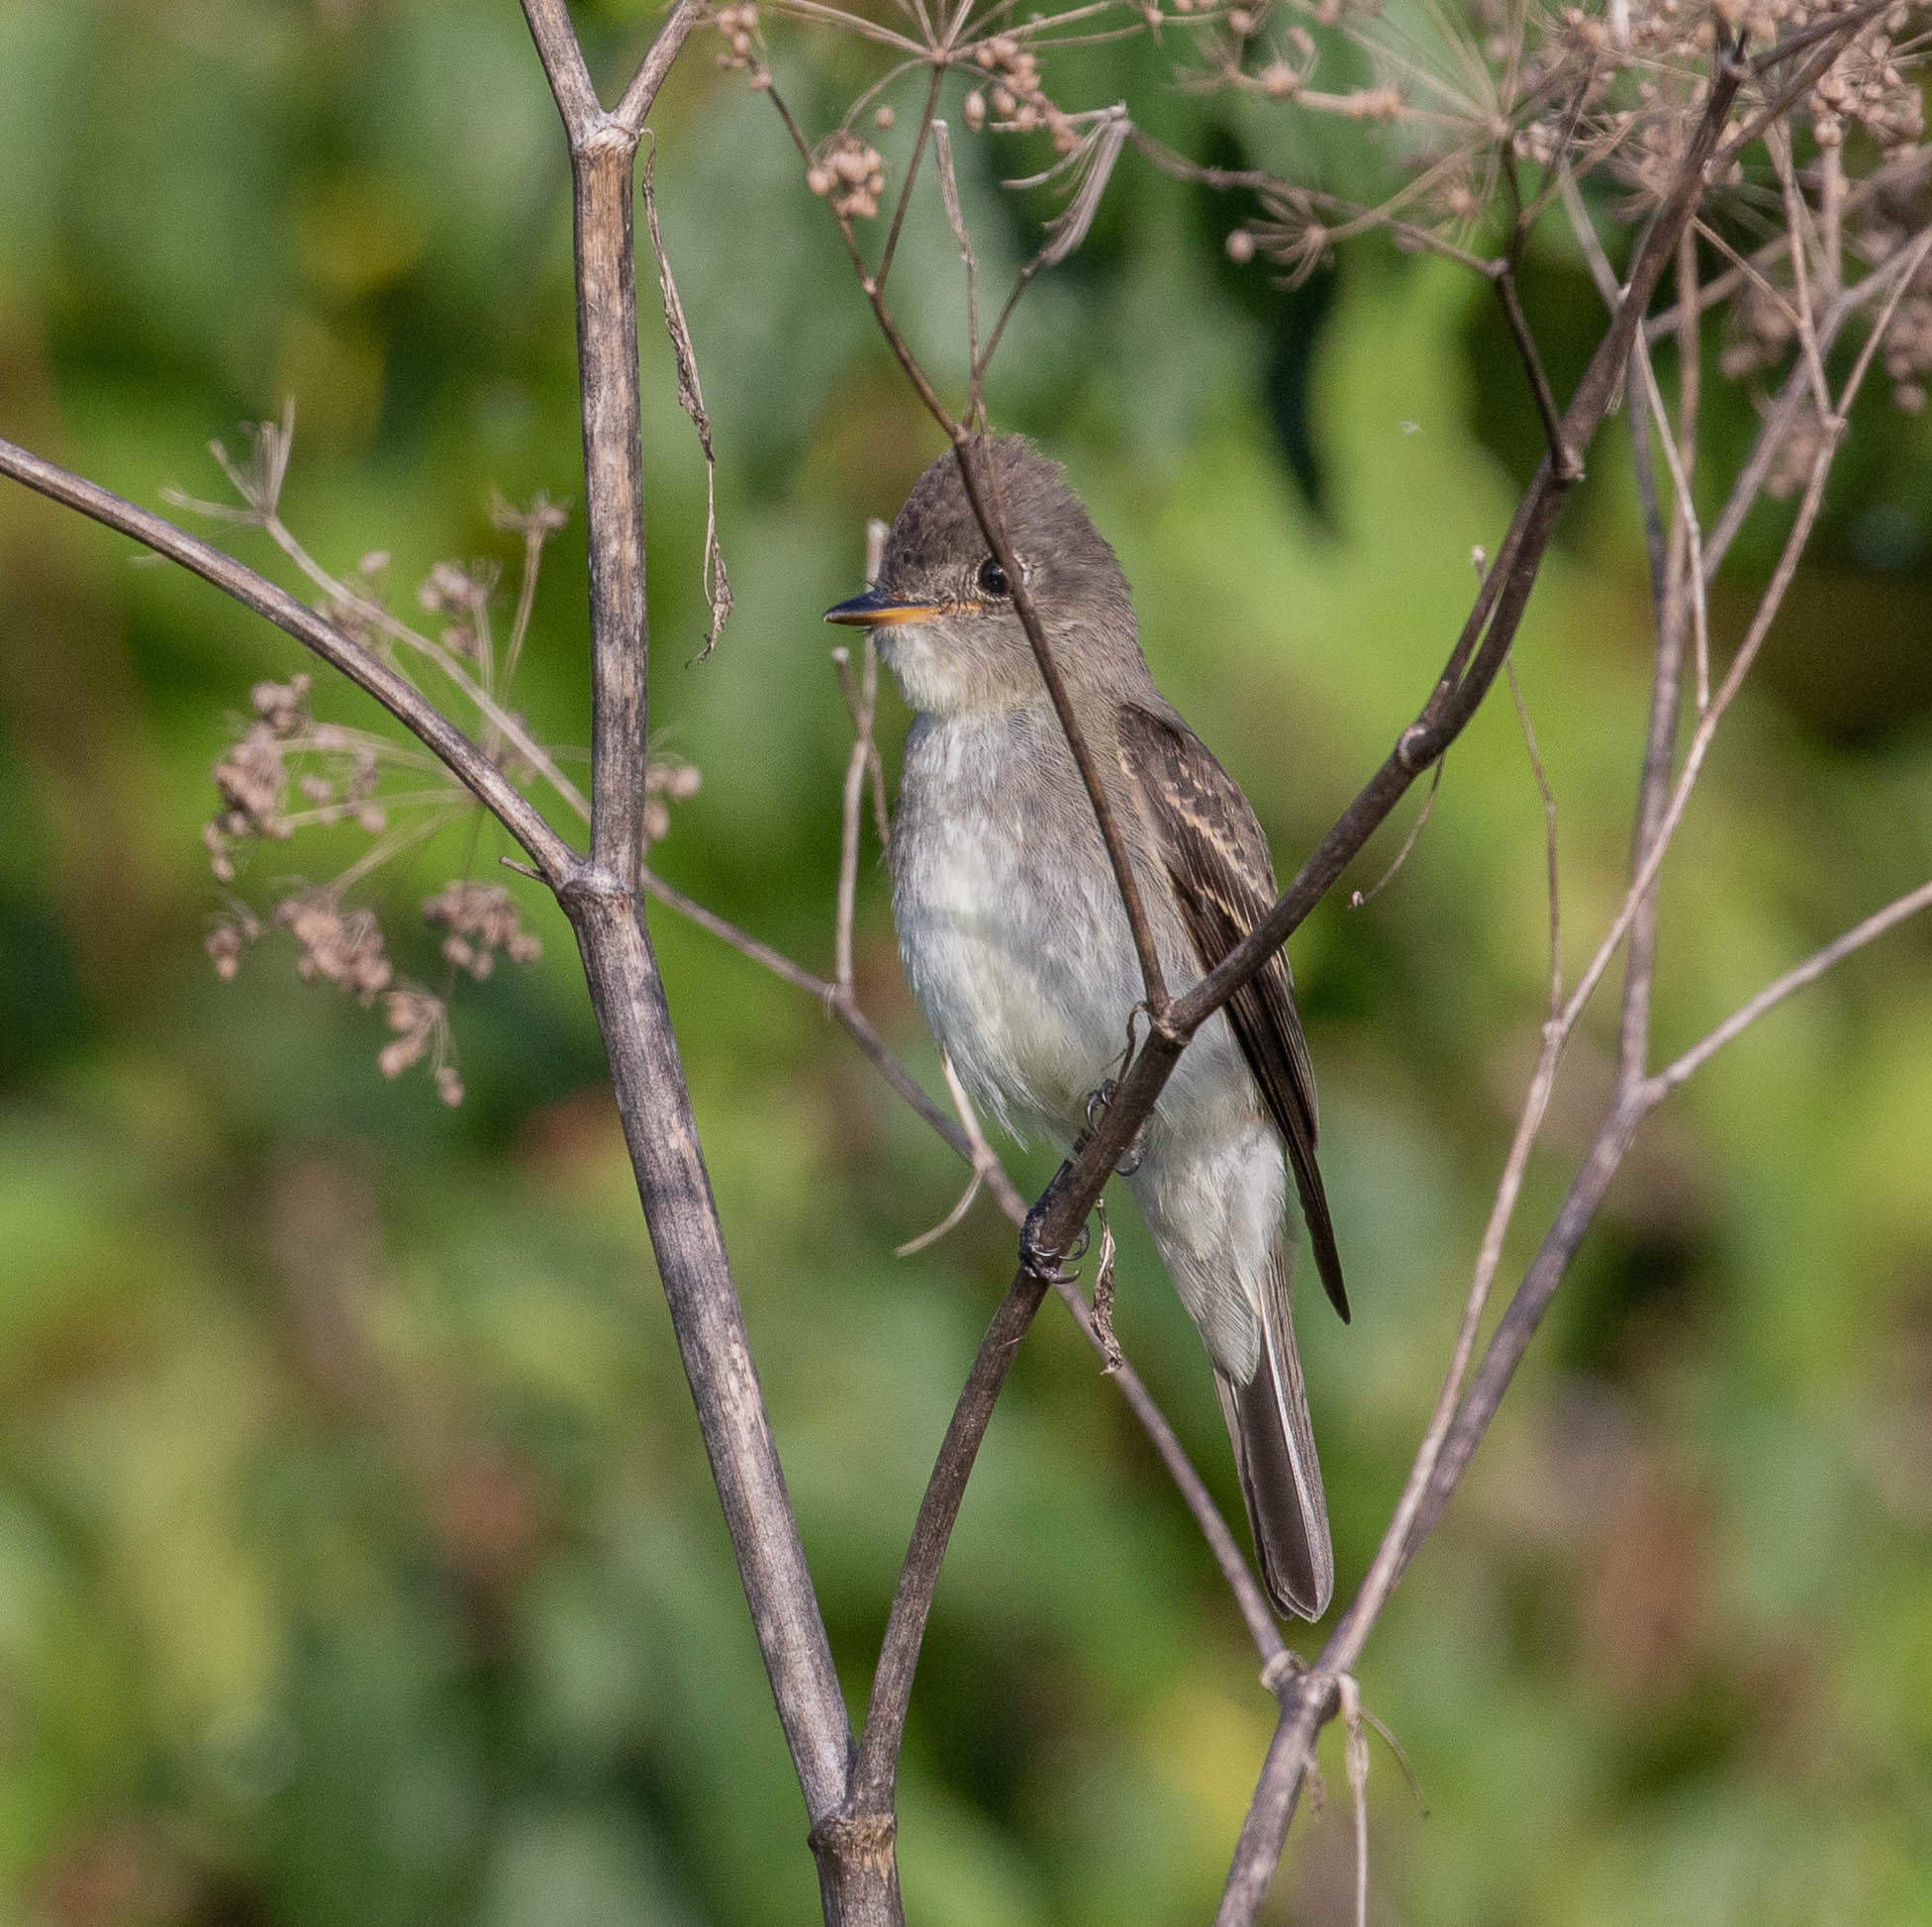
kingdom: Animalia
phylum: Chordata
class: Aves
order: Passeriformes
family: Tyrannidae
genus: Contopus
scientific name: Contopus virens
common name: Eastern wood-pewee
